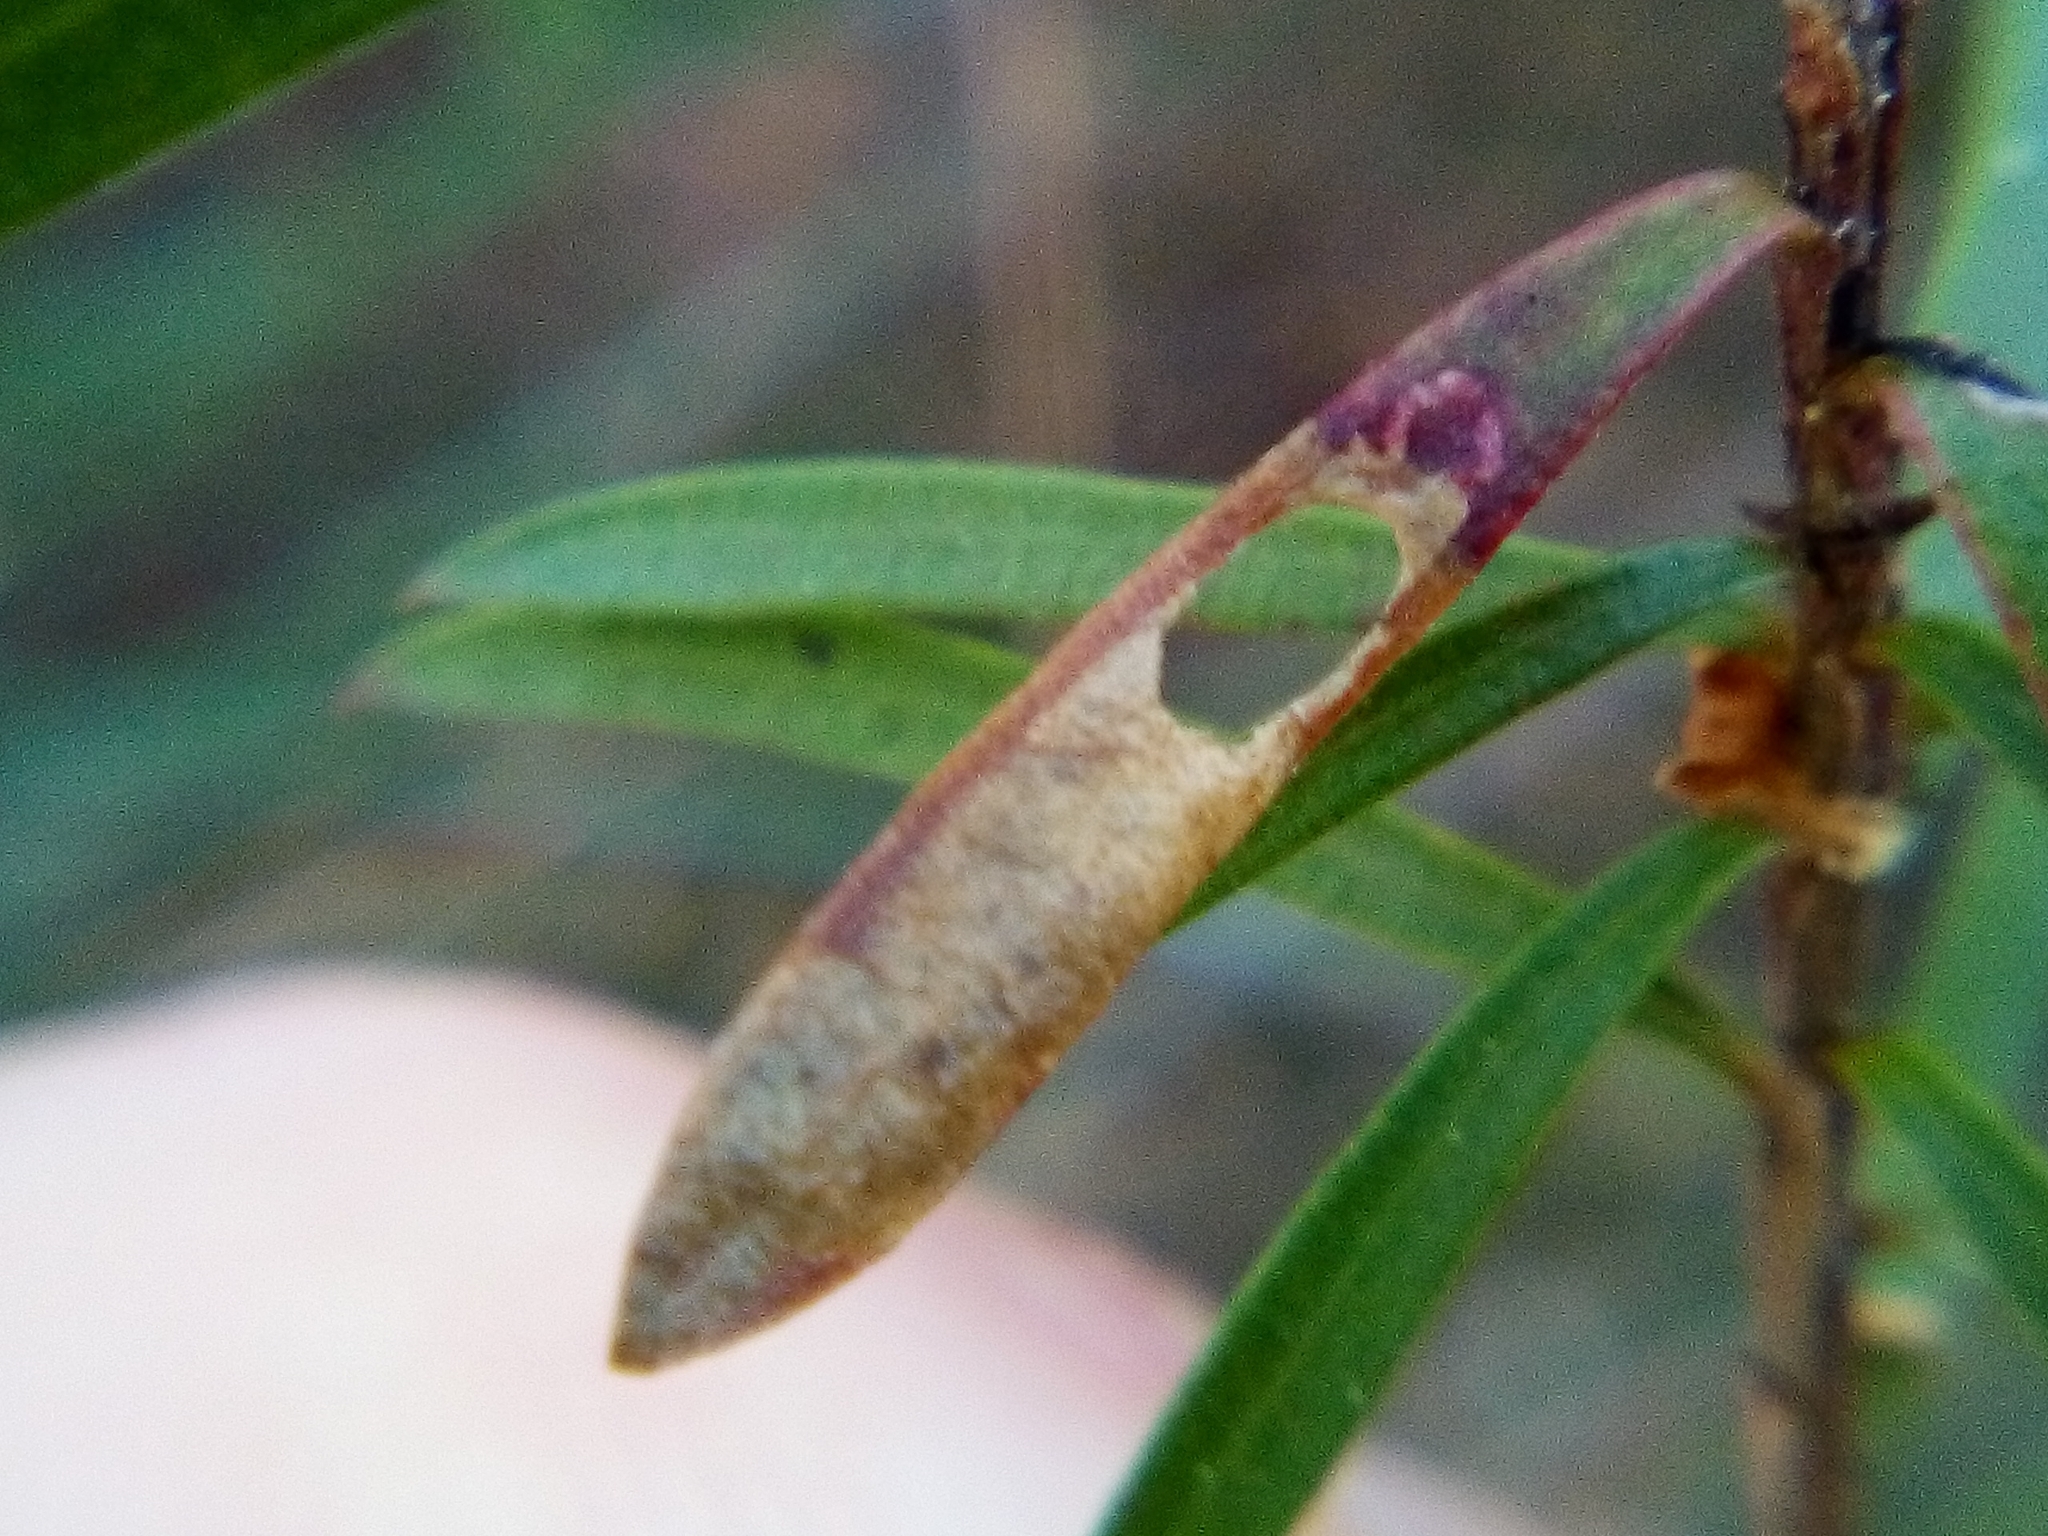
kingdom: Animalia
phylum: Arthropoda
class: Insecta
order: Lepidoptera
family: Heliozelidae
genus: Heliozela
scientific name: Heliozela catoptrias
